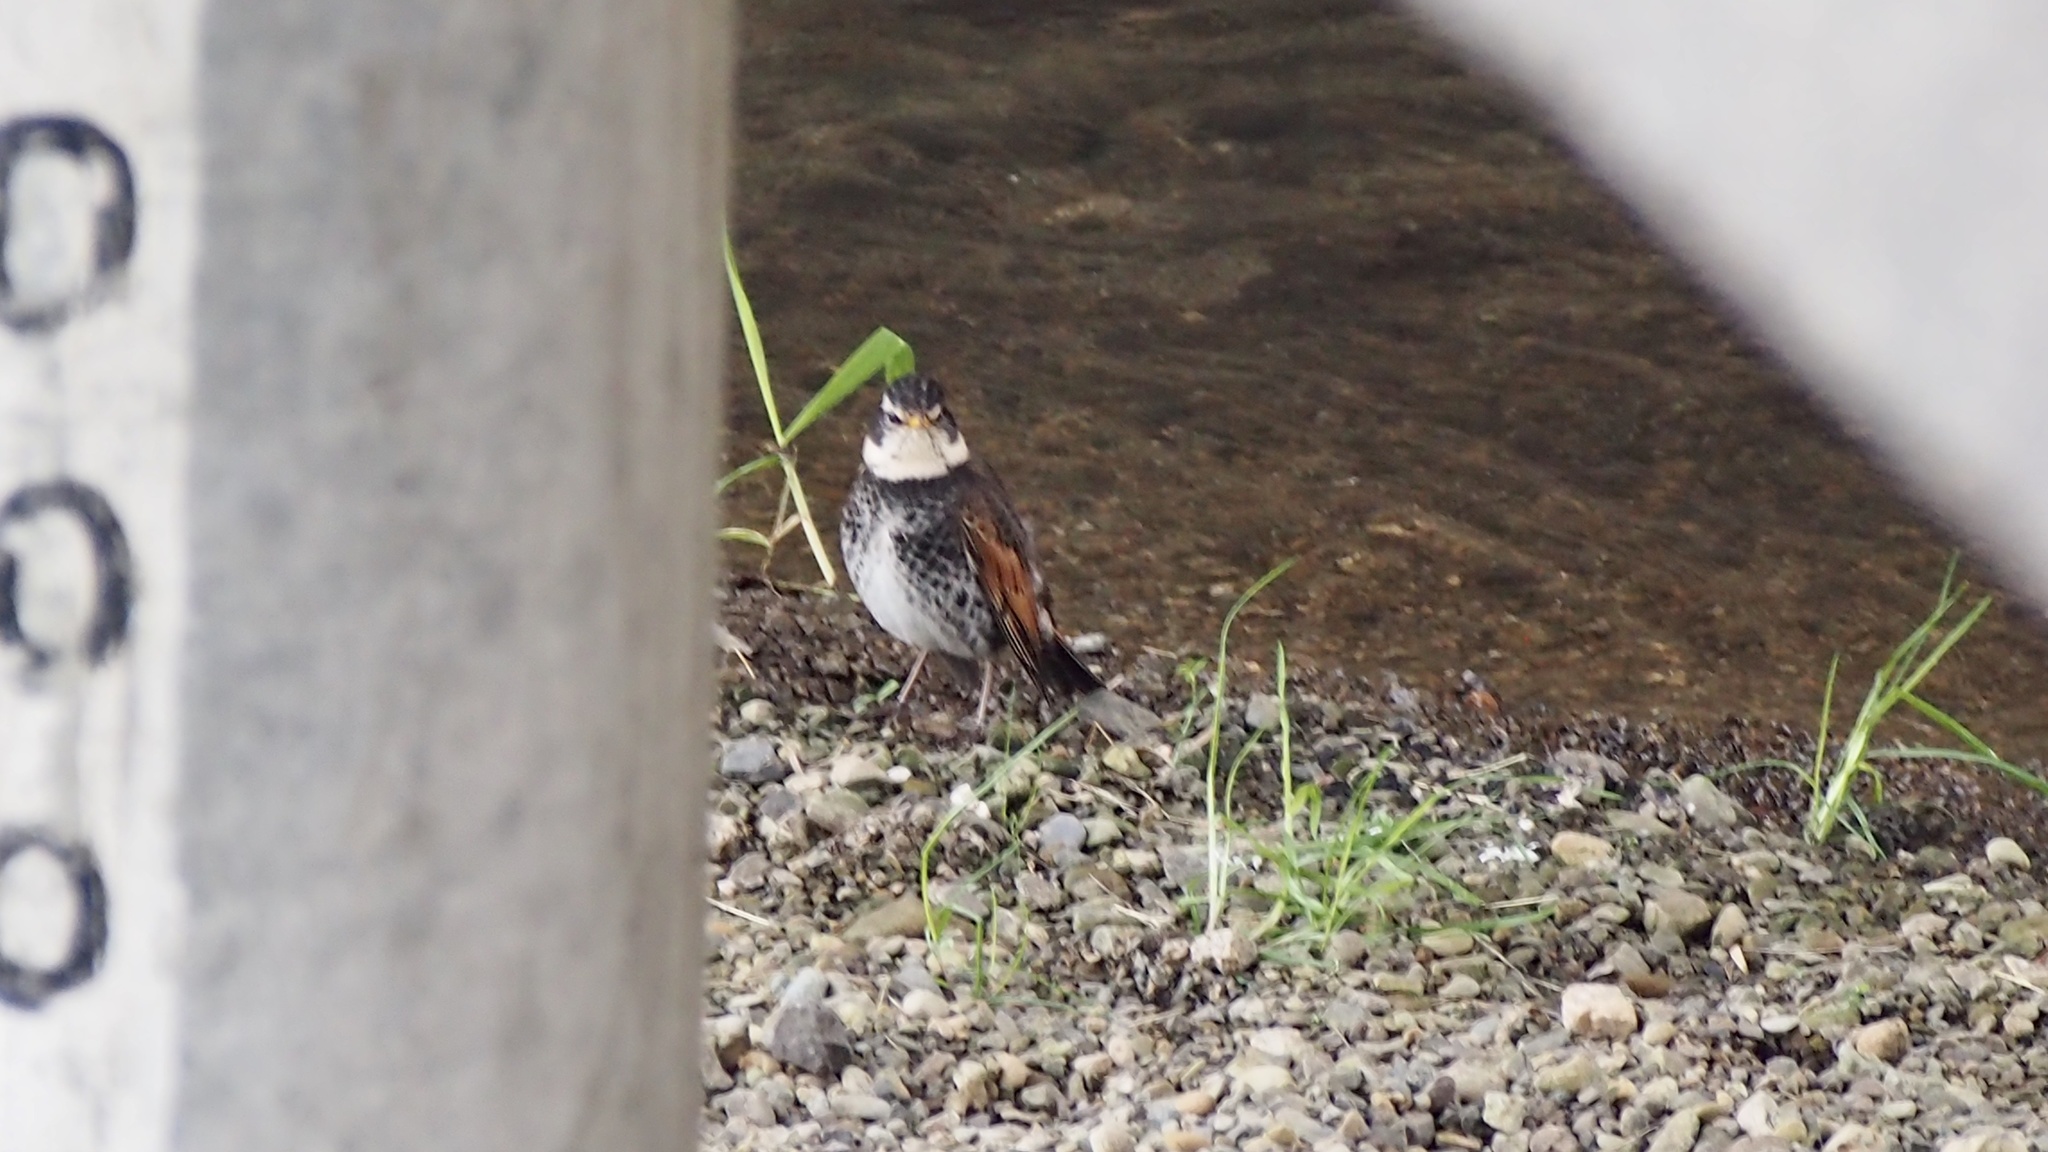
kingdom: Animalia
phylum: Chordata
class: Aves
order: Passeriformes
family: Turdidae
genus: Turdus
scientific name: Turdus eunomus
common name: Dusky thrush
